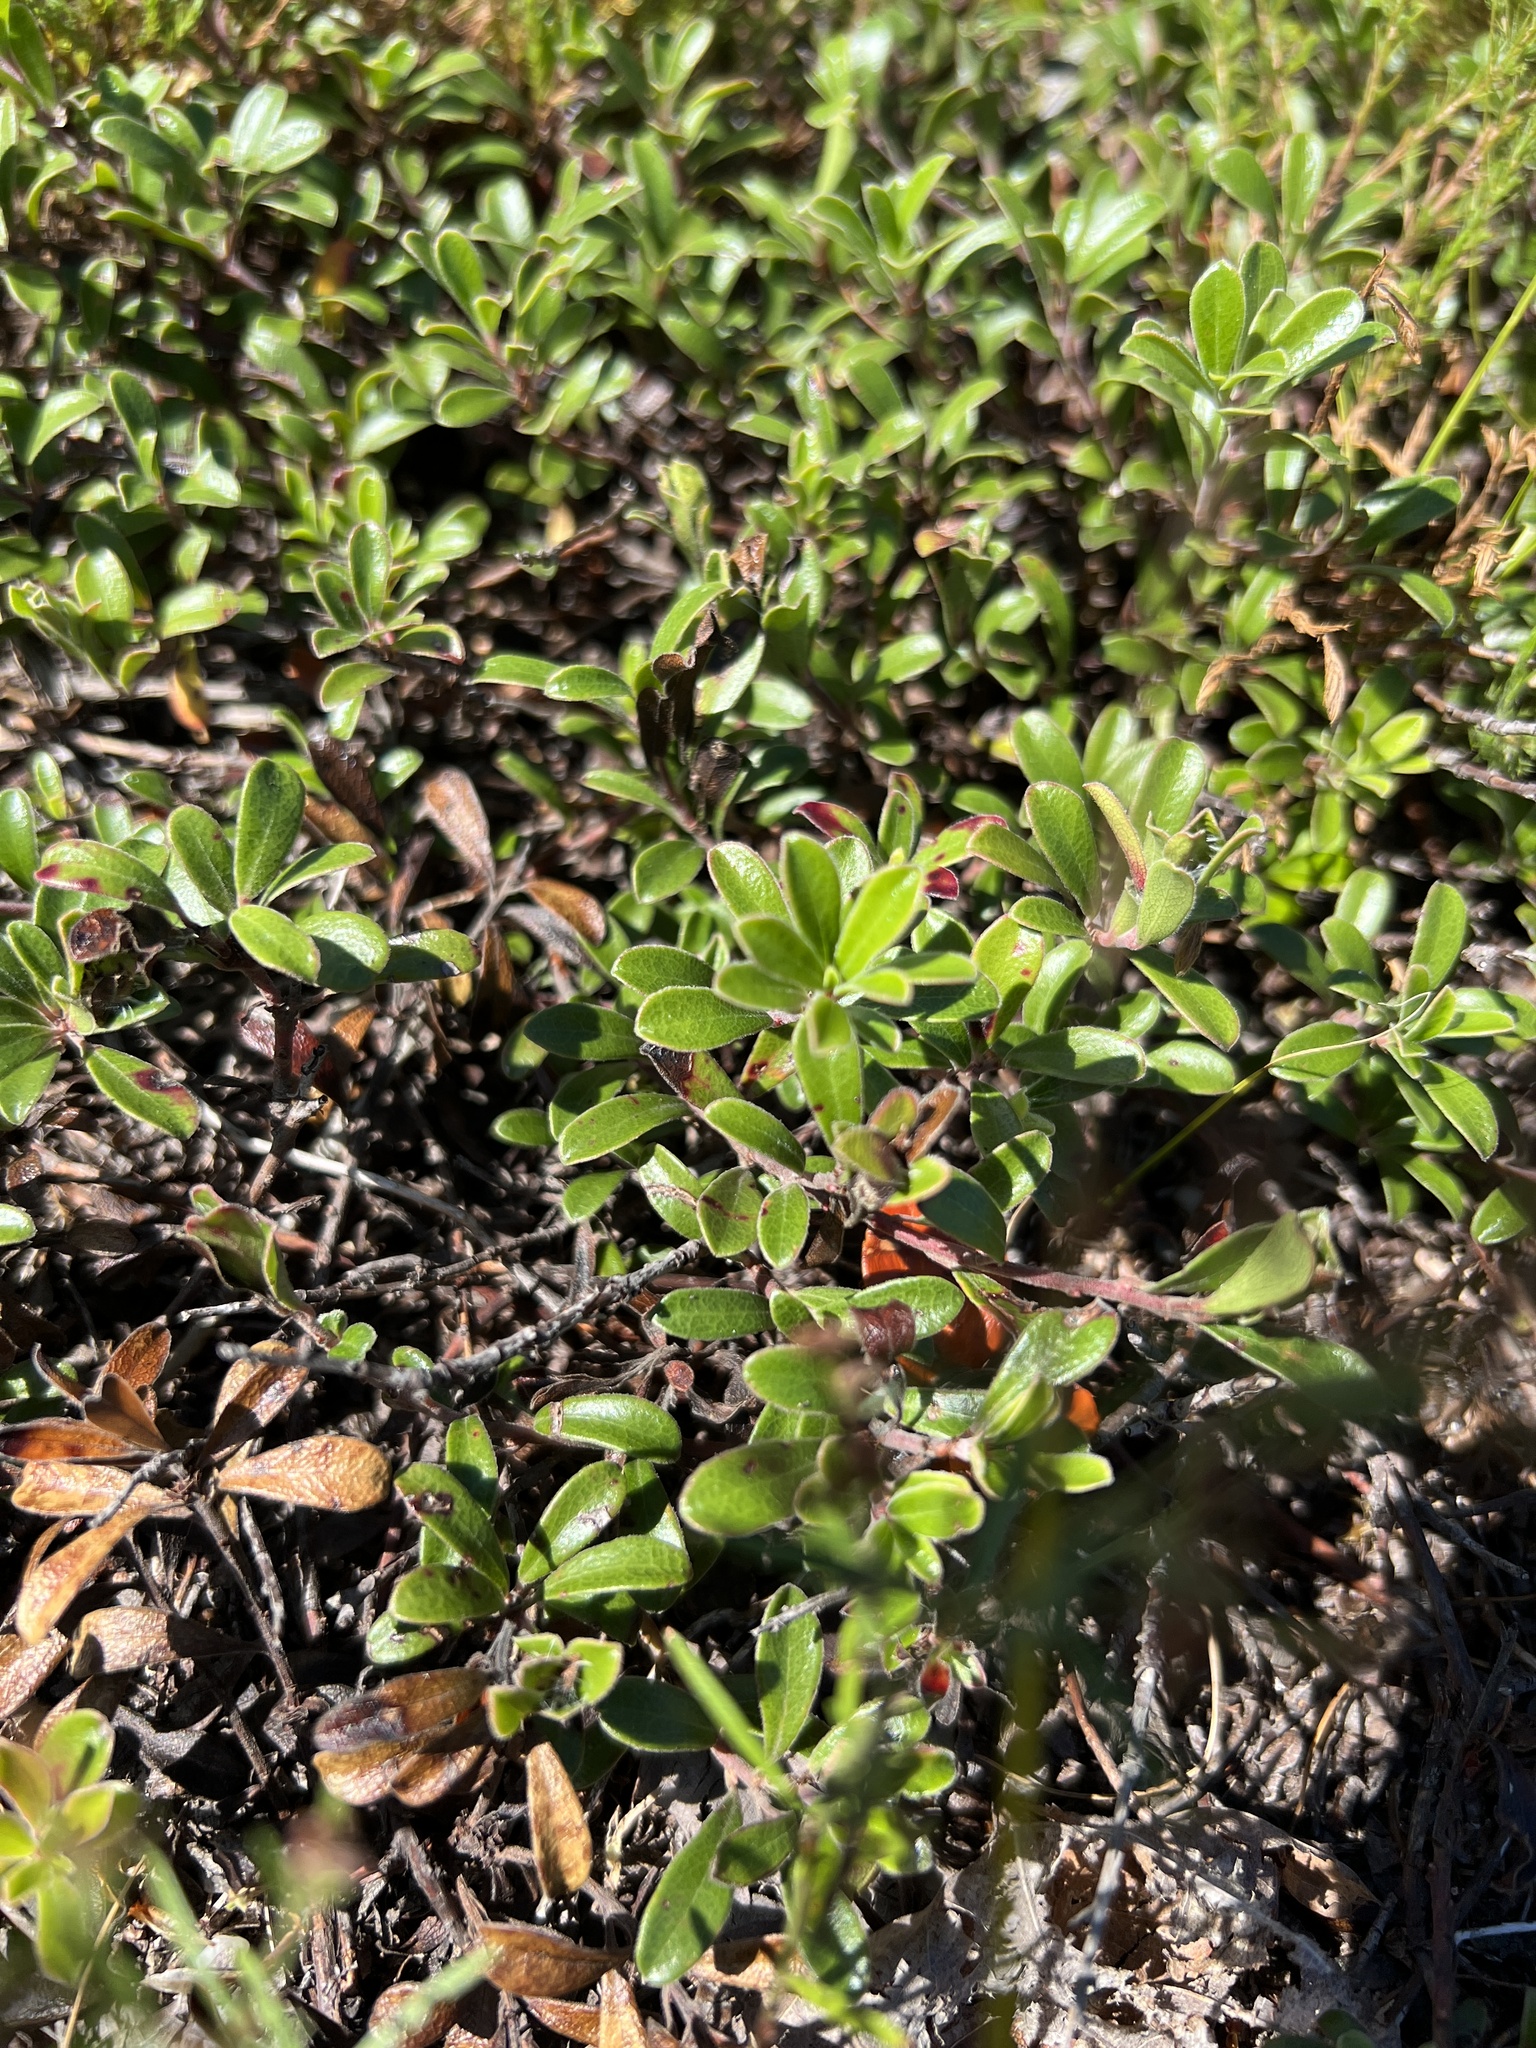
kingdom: Plantae
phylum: Tracheophyta
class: Magnoliopsida
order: Ericales
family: Ericaceae
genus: Arctostaphylos
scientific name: Arctostaphylos uva-ursi
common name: Bearberry
